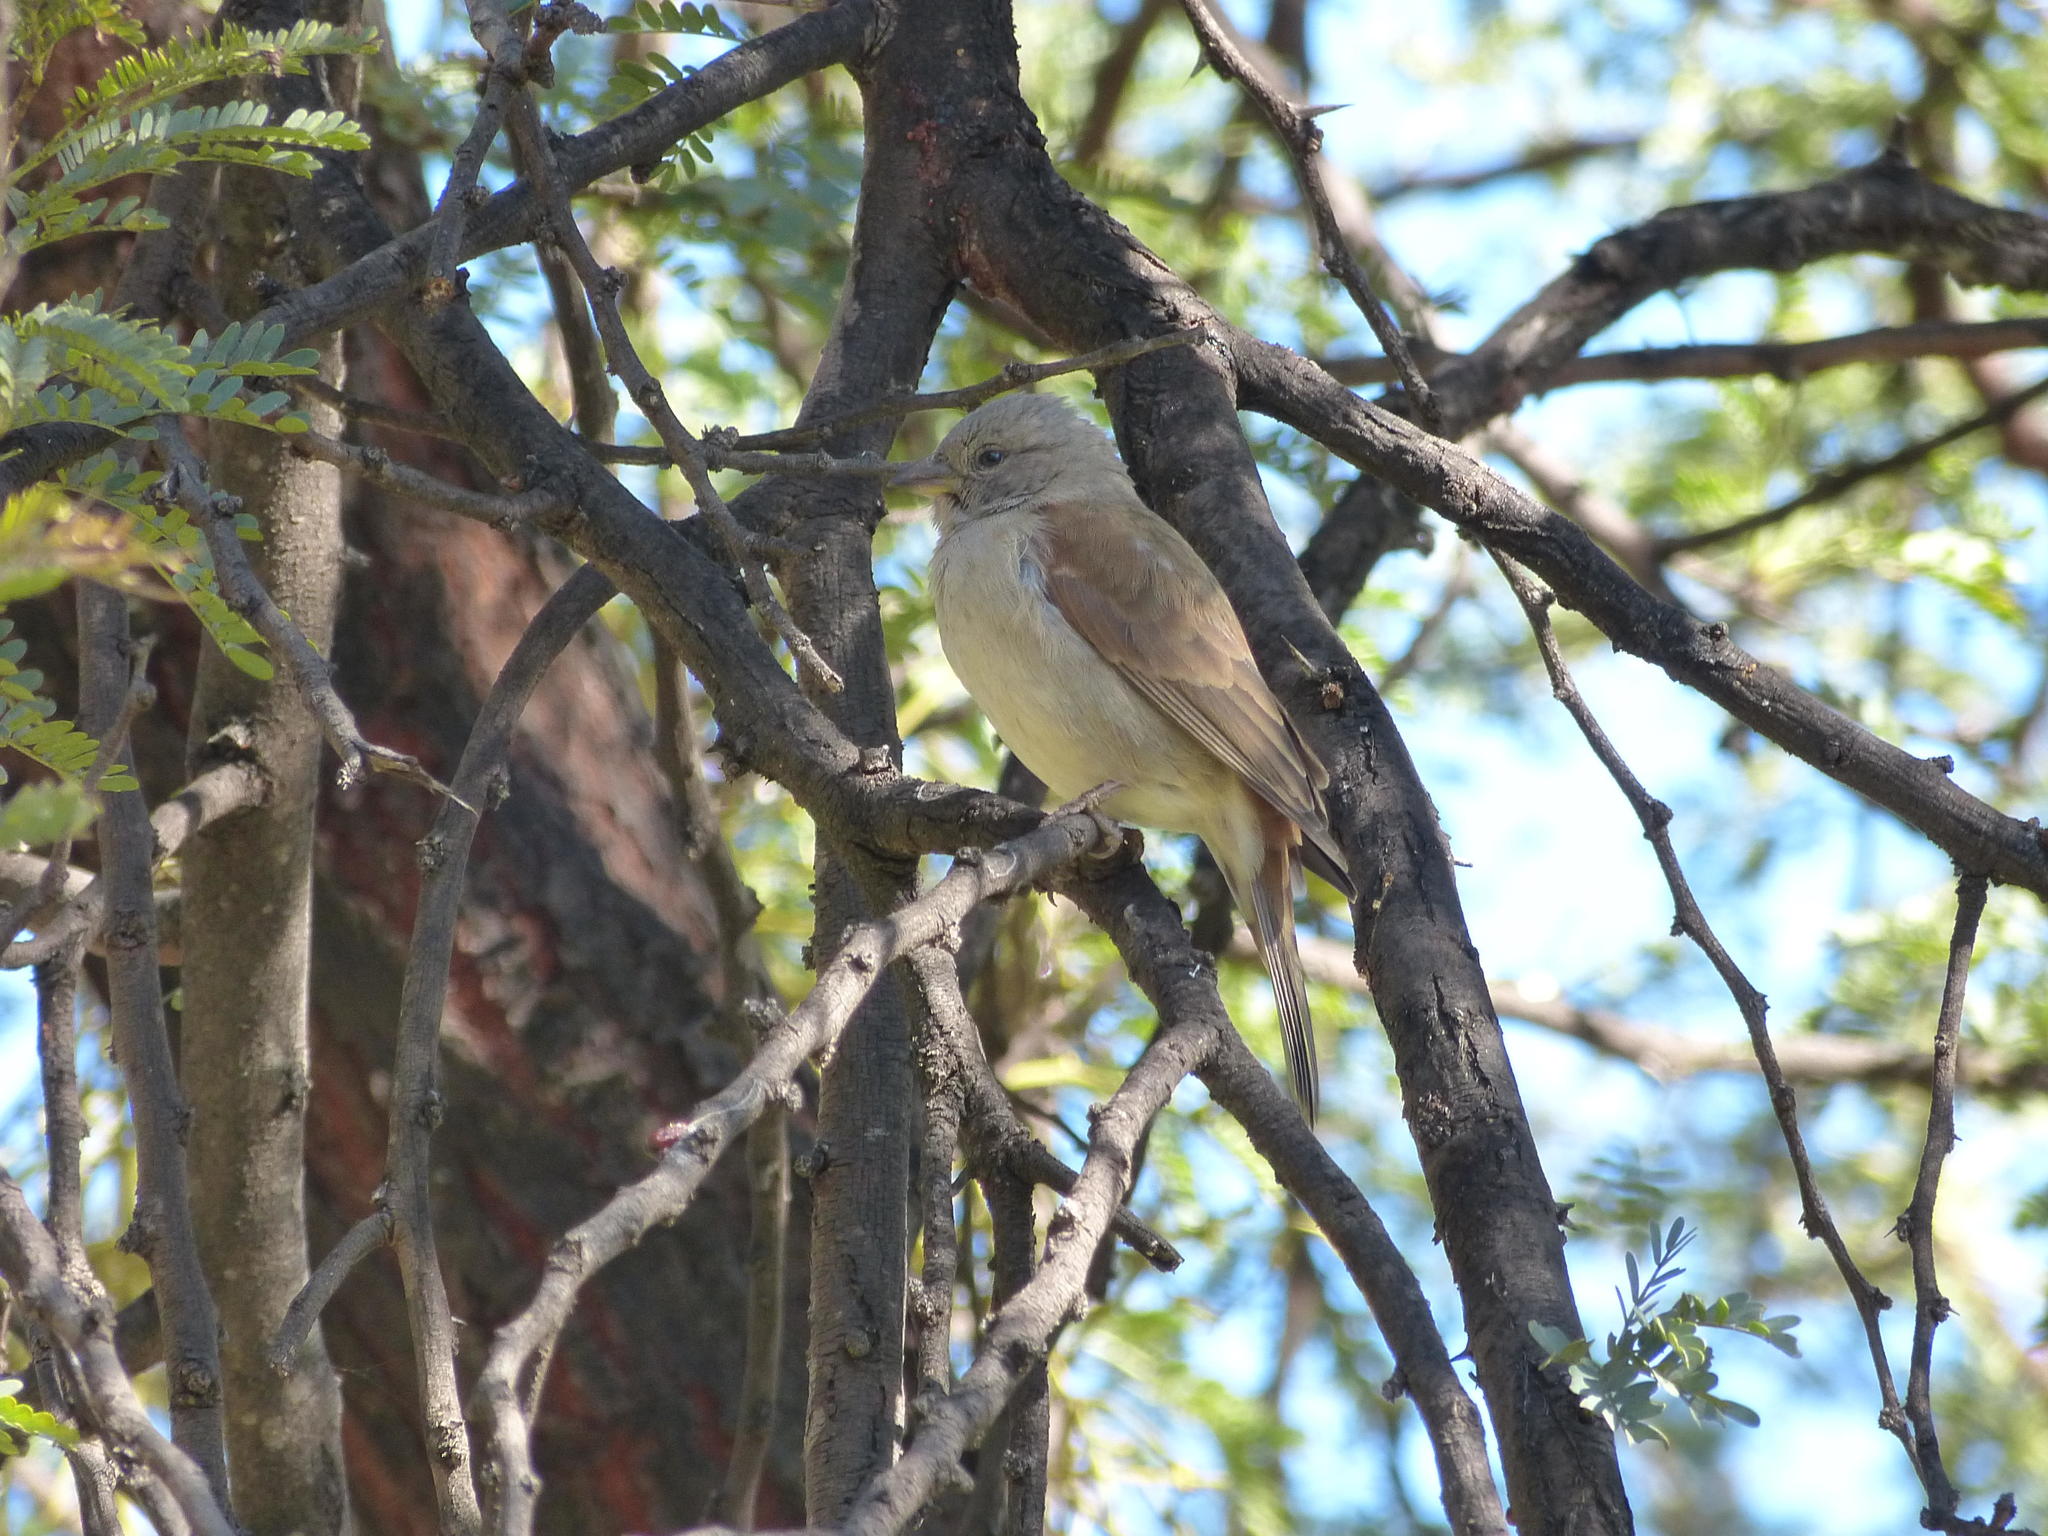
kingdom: Animalia
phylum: Chordata
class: Aves
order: Passeriformes
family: Passeridae
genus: Passer
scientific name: Passer diffusus
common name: Southern grey-headed sparrow
